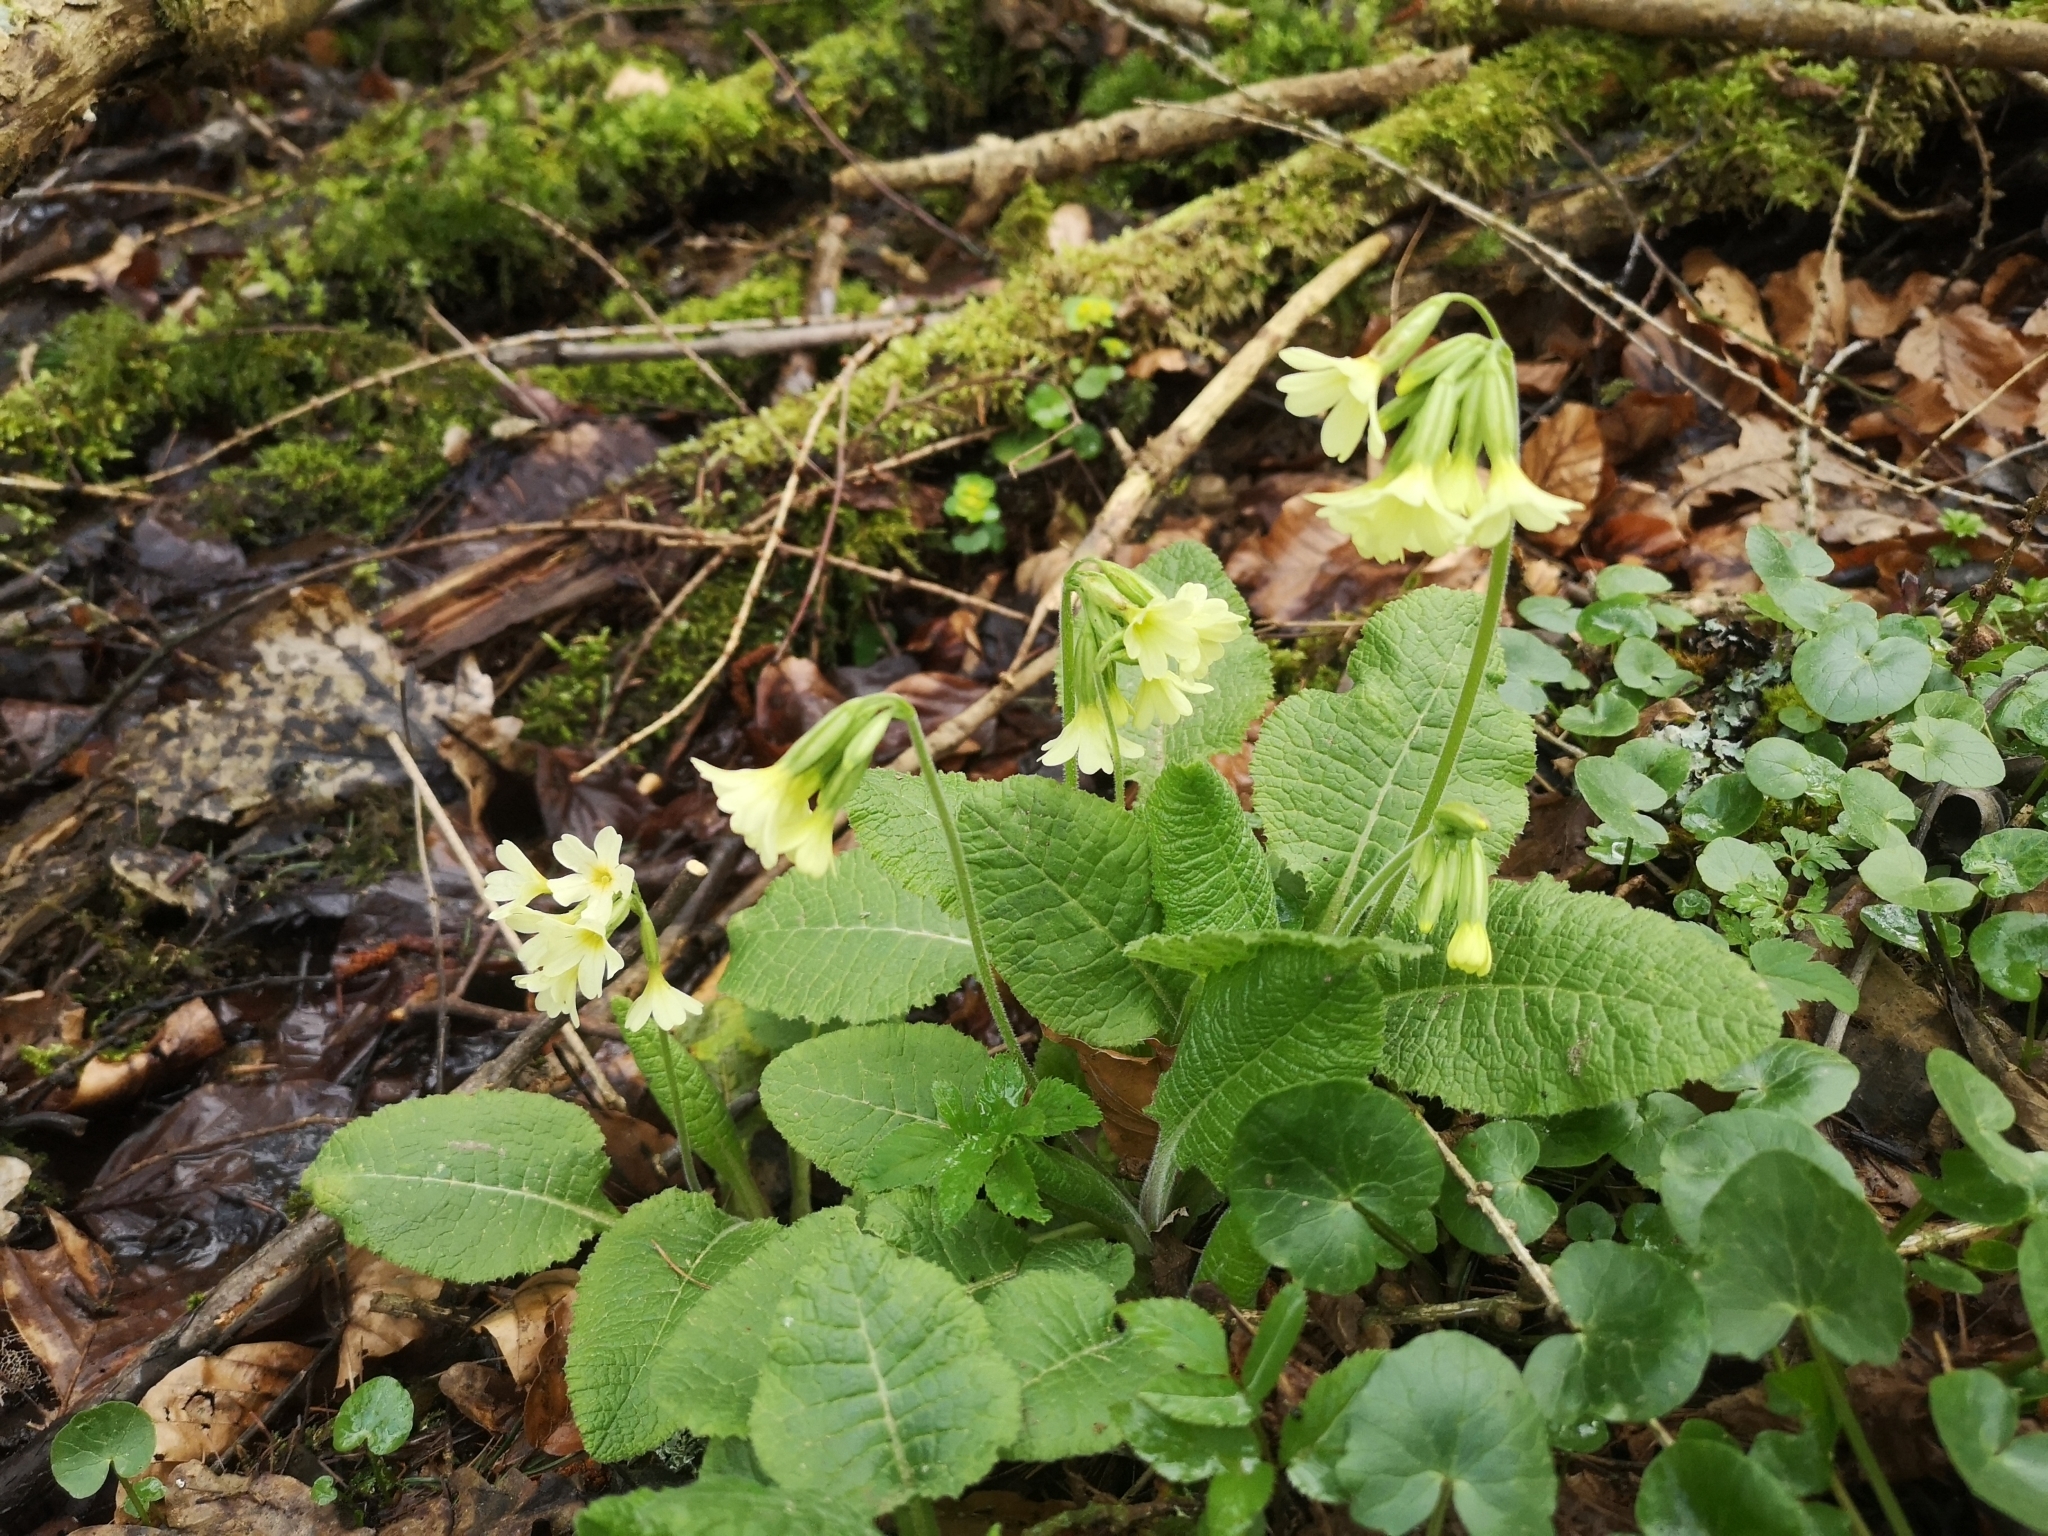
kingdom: Plantae
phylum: Tracheophyta
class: Magnoliopsida
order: Ericales
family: Primulaceae
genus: Primula
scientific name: Primula elatior
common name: Oxlip
